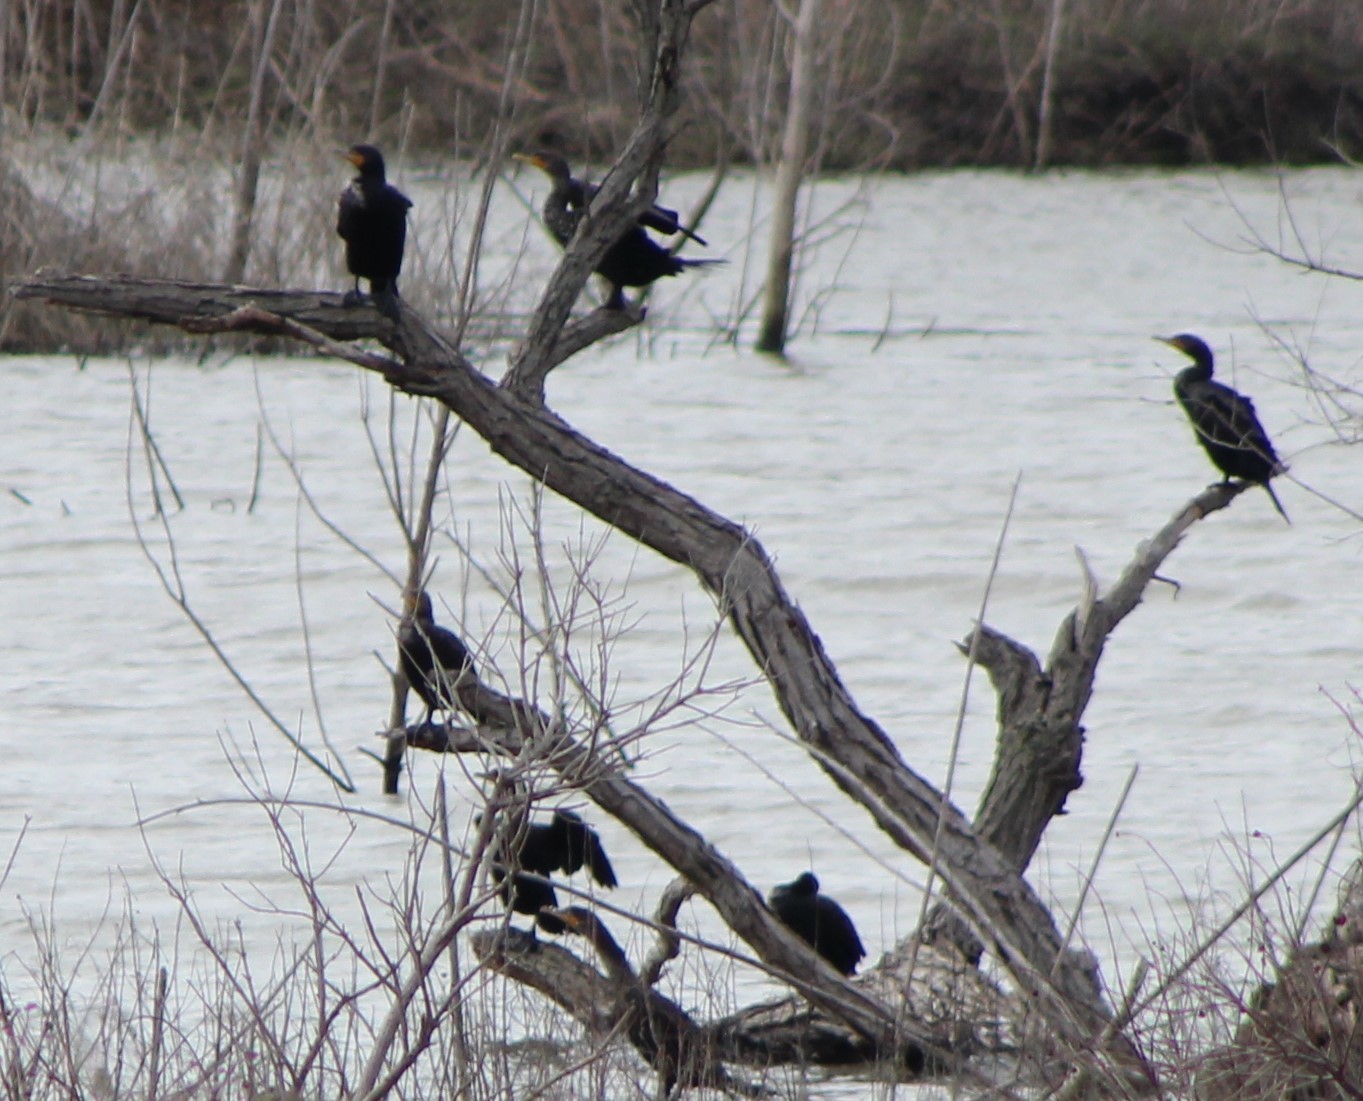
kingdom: Animalia
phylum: Chordata
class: Aves
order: Suliformes
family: Phalacrocoracidae
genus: Phalacrocorax
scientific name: Phalacrocorax auritus
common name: Double-crested cormorant
